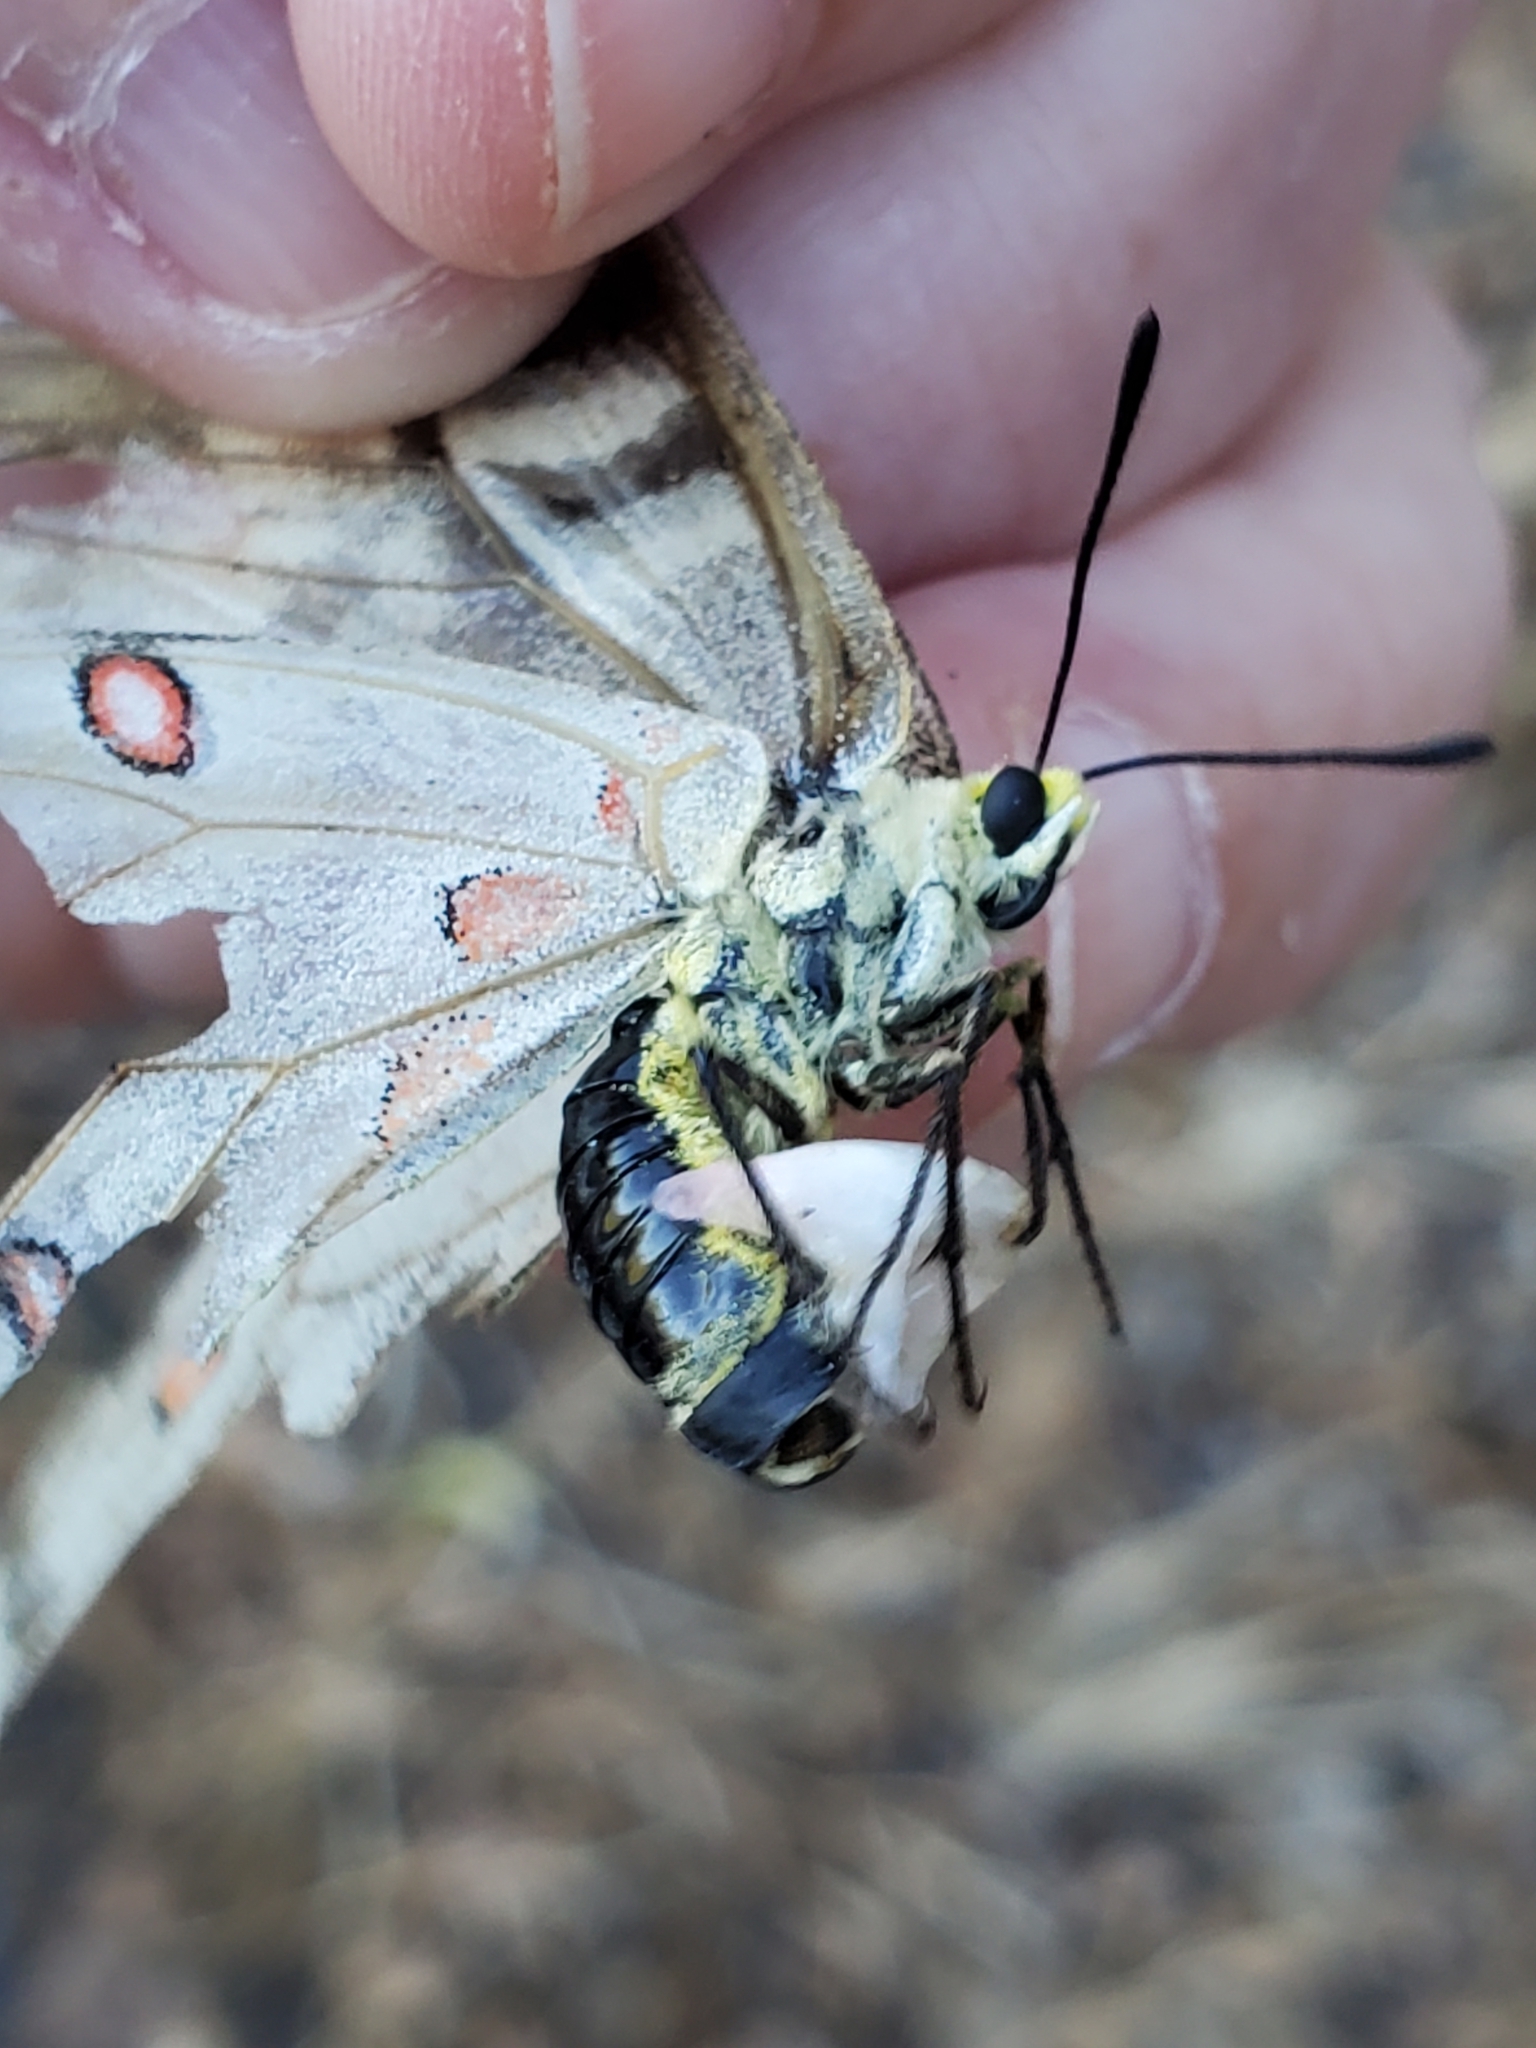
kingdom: Animalia
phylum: Arthropoda
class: Insecta
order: Lepidoptera
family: Papilionidae
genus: Parnassius
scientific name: Parnassius clodius
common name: American apollo
